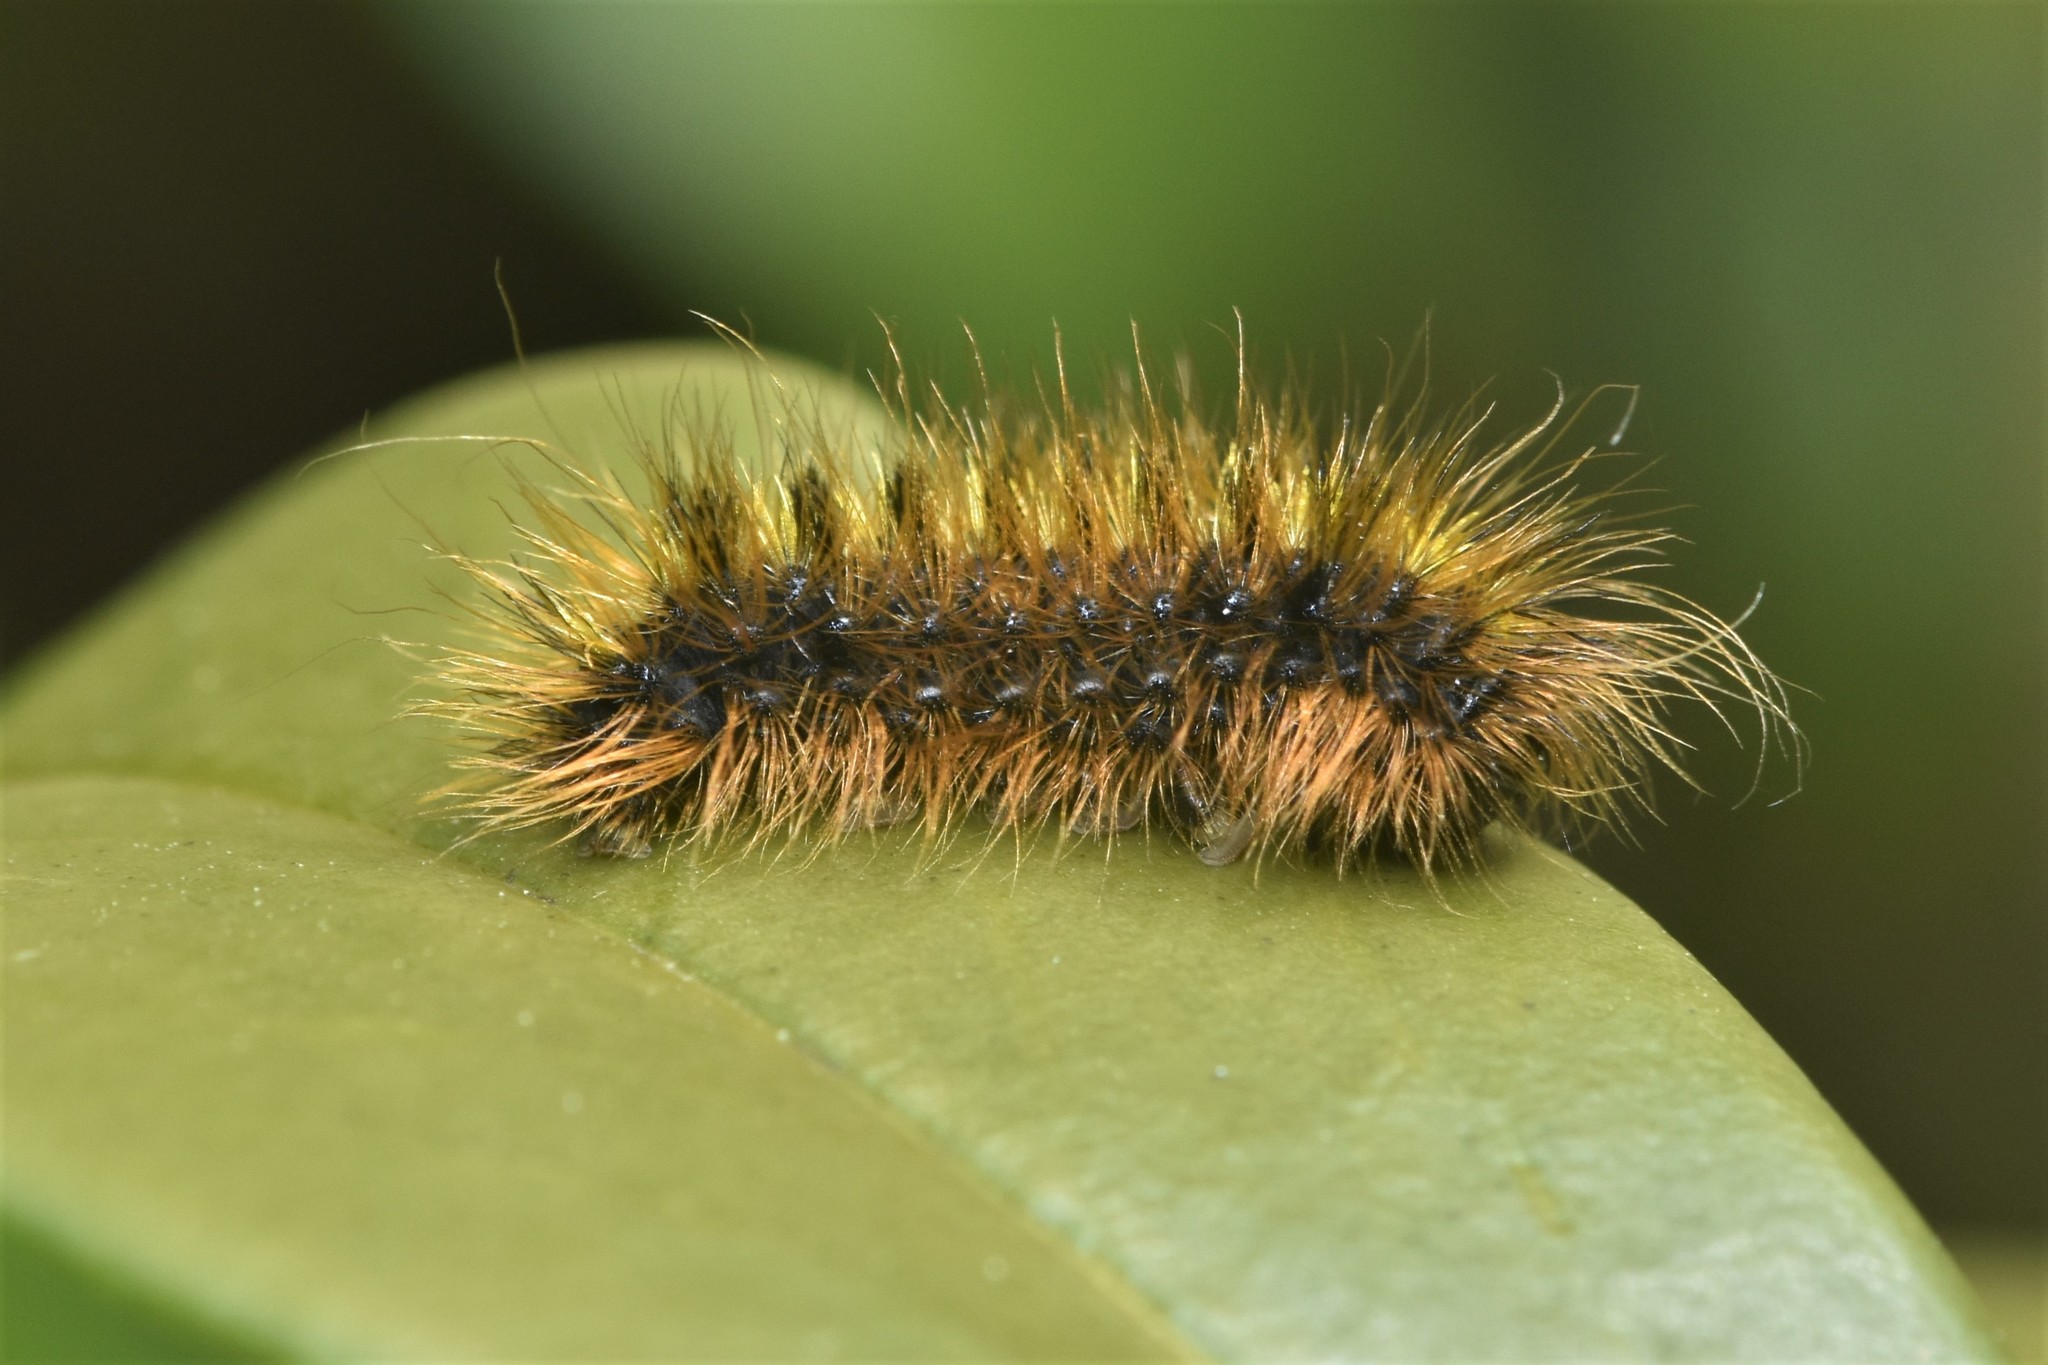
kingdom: Animalia
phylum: Arthropoda
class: Insecta
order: Lepidoptera
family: Erebidae
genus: Lophocampa
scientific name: Lophocampa argentata
